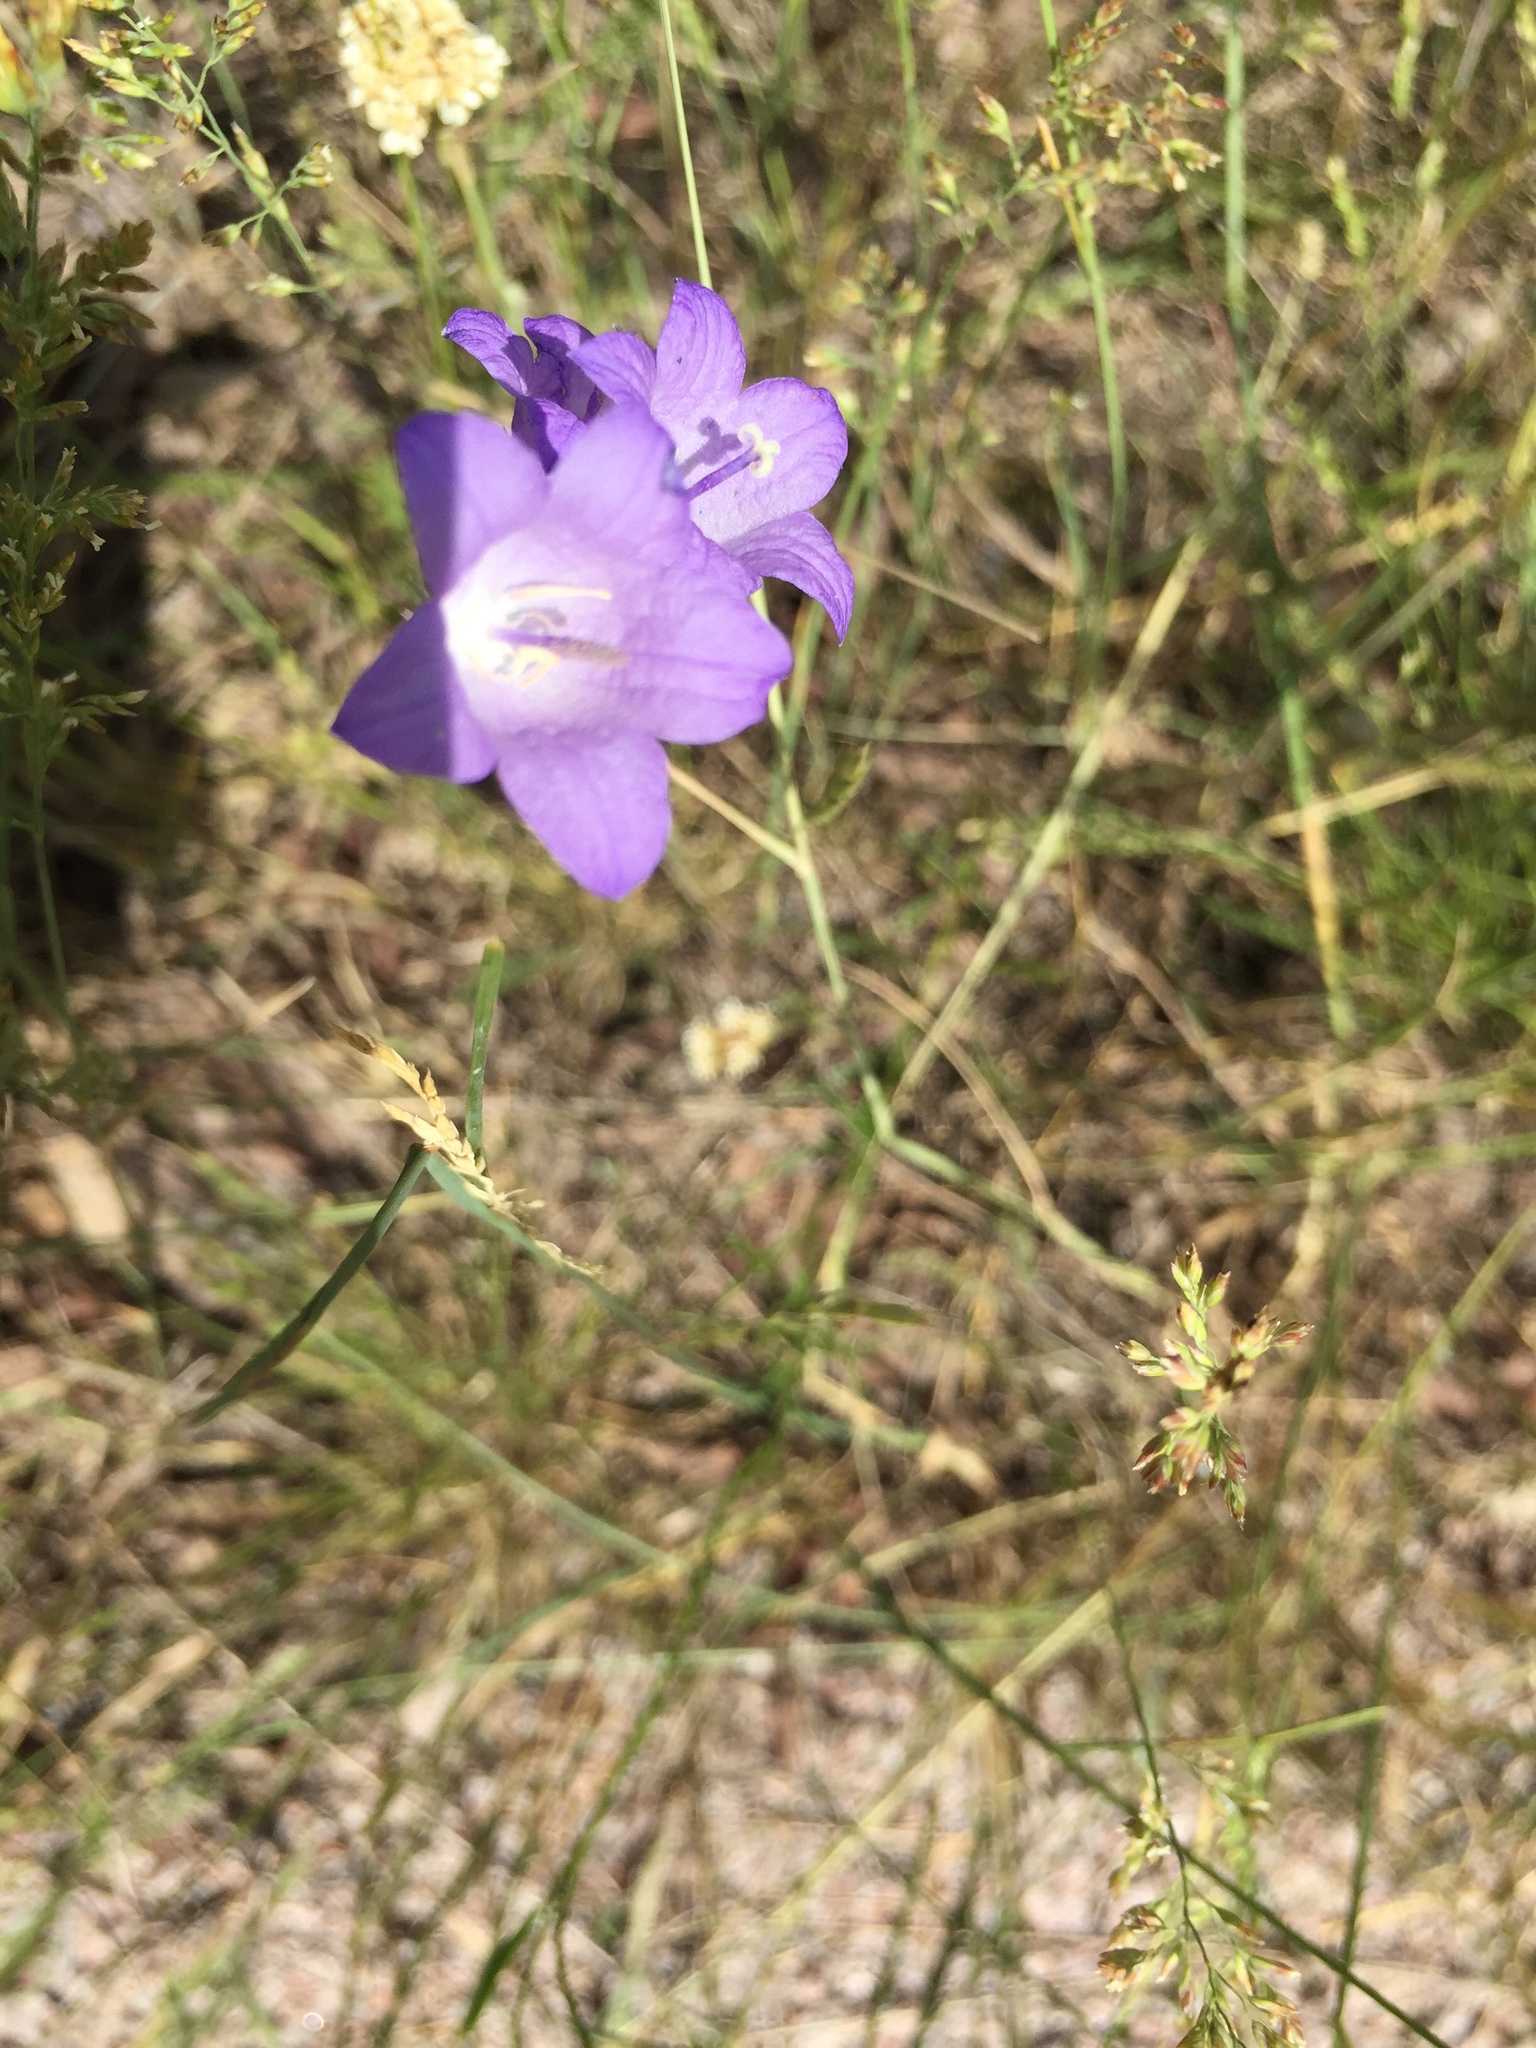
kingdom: Plantae
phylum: Tracheophyta
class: Magnoliopsida
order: Asterales
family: Campanulaceae
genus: Campanula
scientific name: Campanula petiolata
